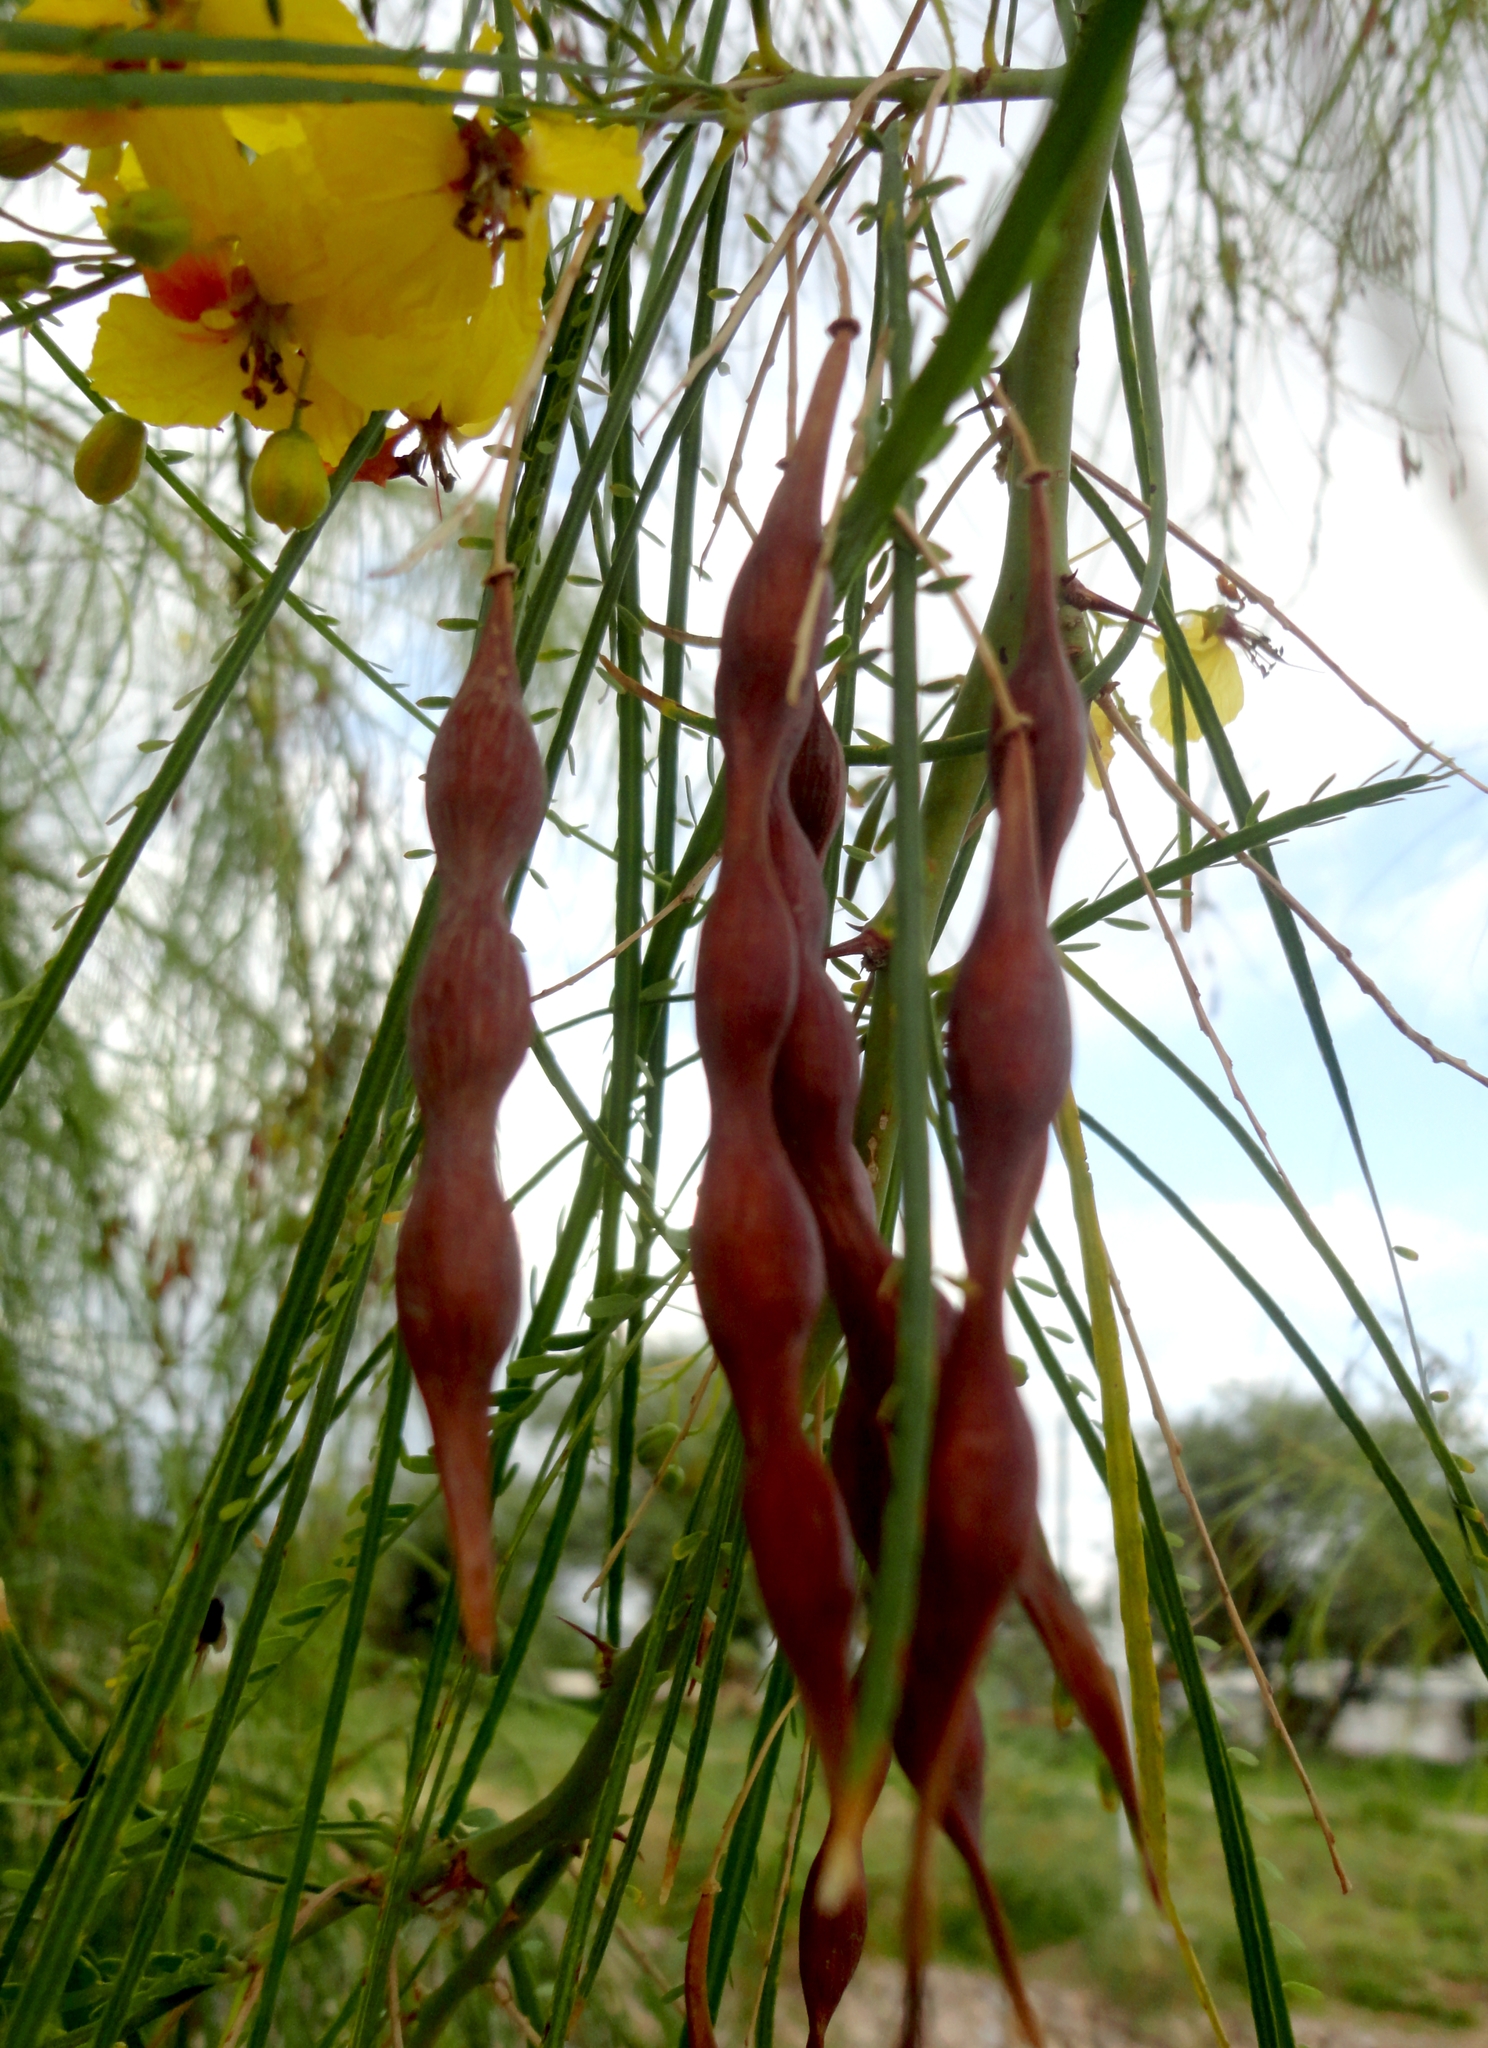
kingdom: Plantae
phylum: Tracheophyta
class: Magnoliopsida
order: Fabales
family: Fabaceae
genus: Parkinsonia
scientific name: Parkinsonia aculeata
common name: Jerusalem thorn
